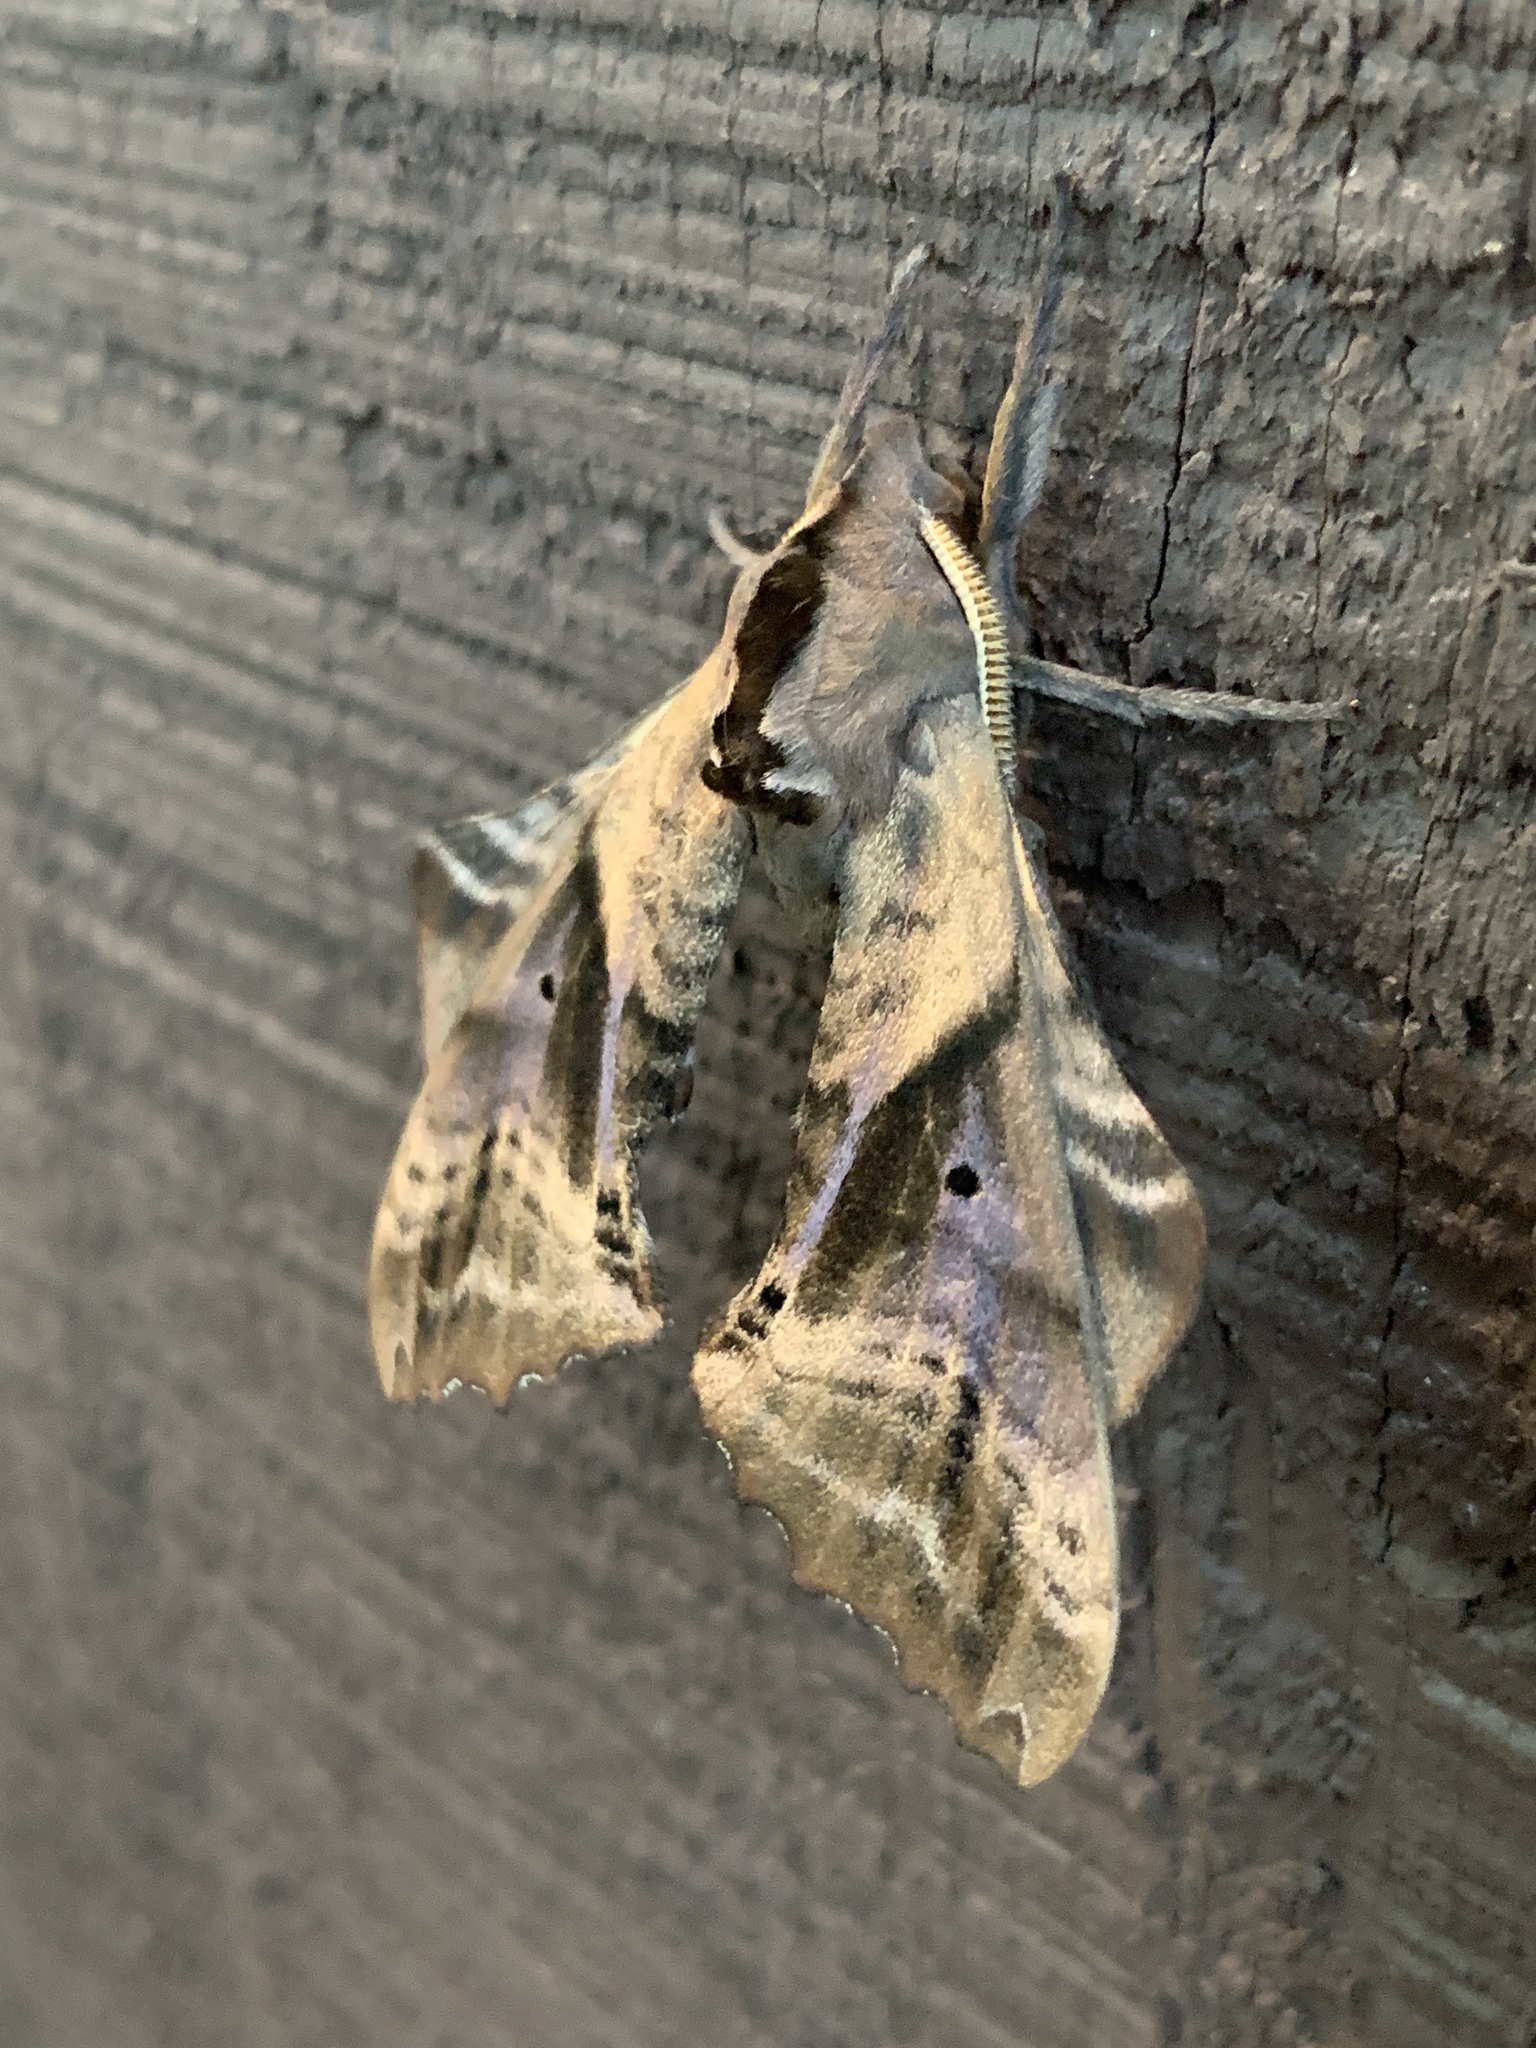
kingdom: Animalia
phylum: Arthropoda
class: Insecta
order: Lepidoptera
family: Sphingidae
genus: Paonias
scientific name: Paonias excaecata
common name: Blind-eyed sphinx
